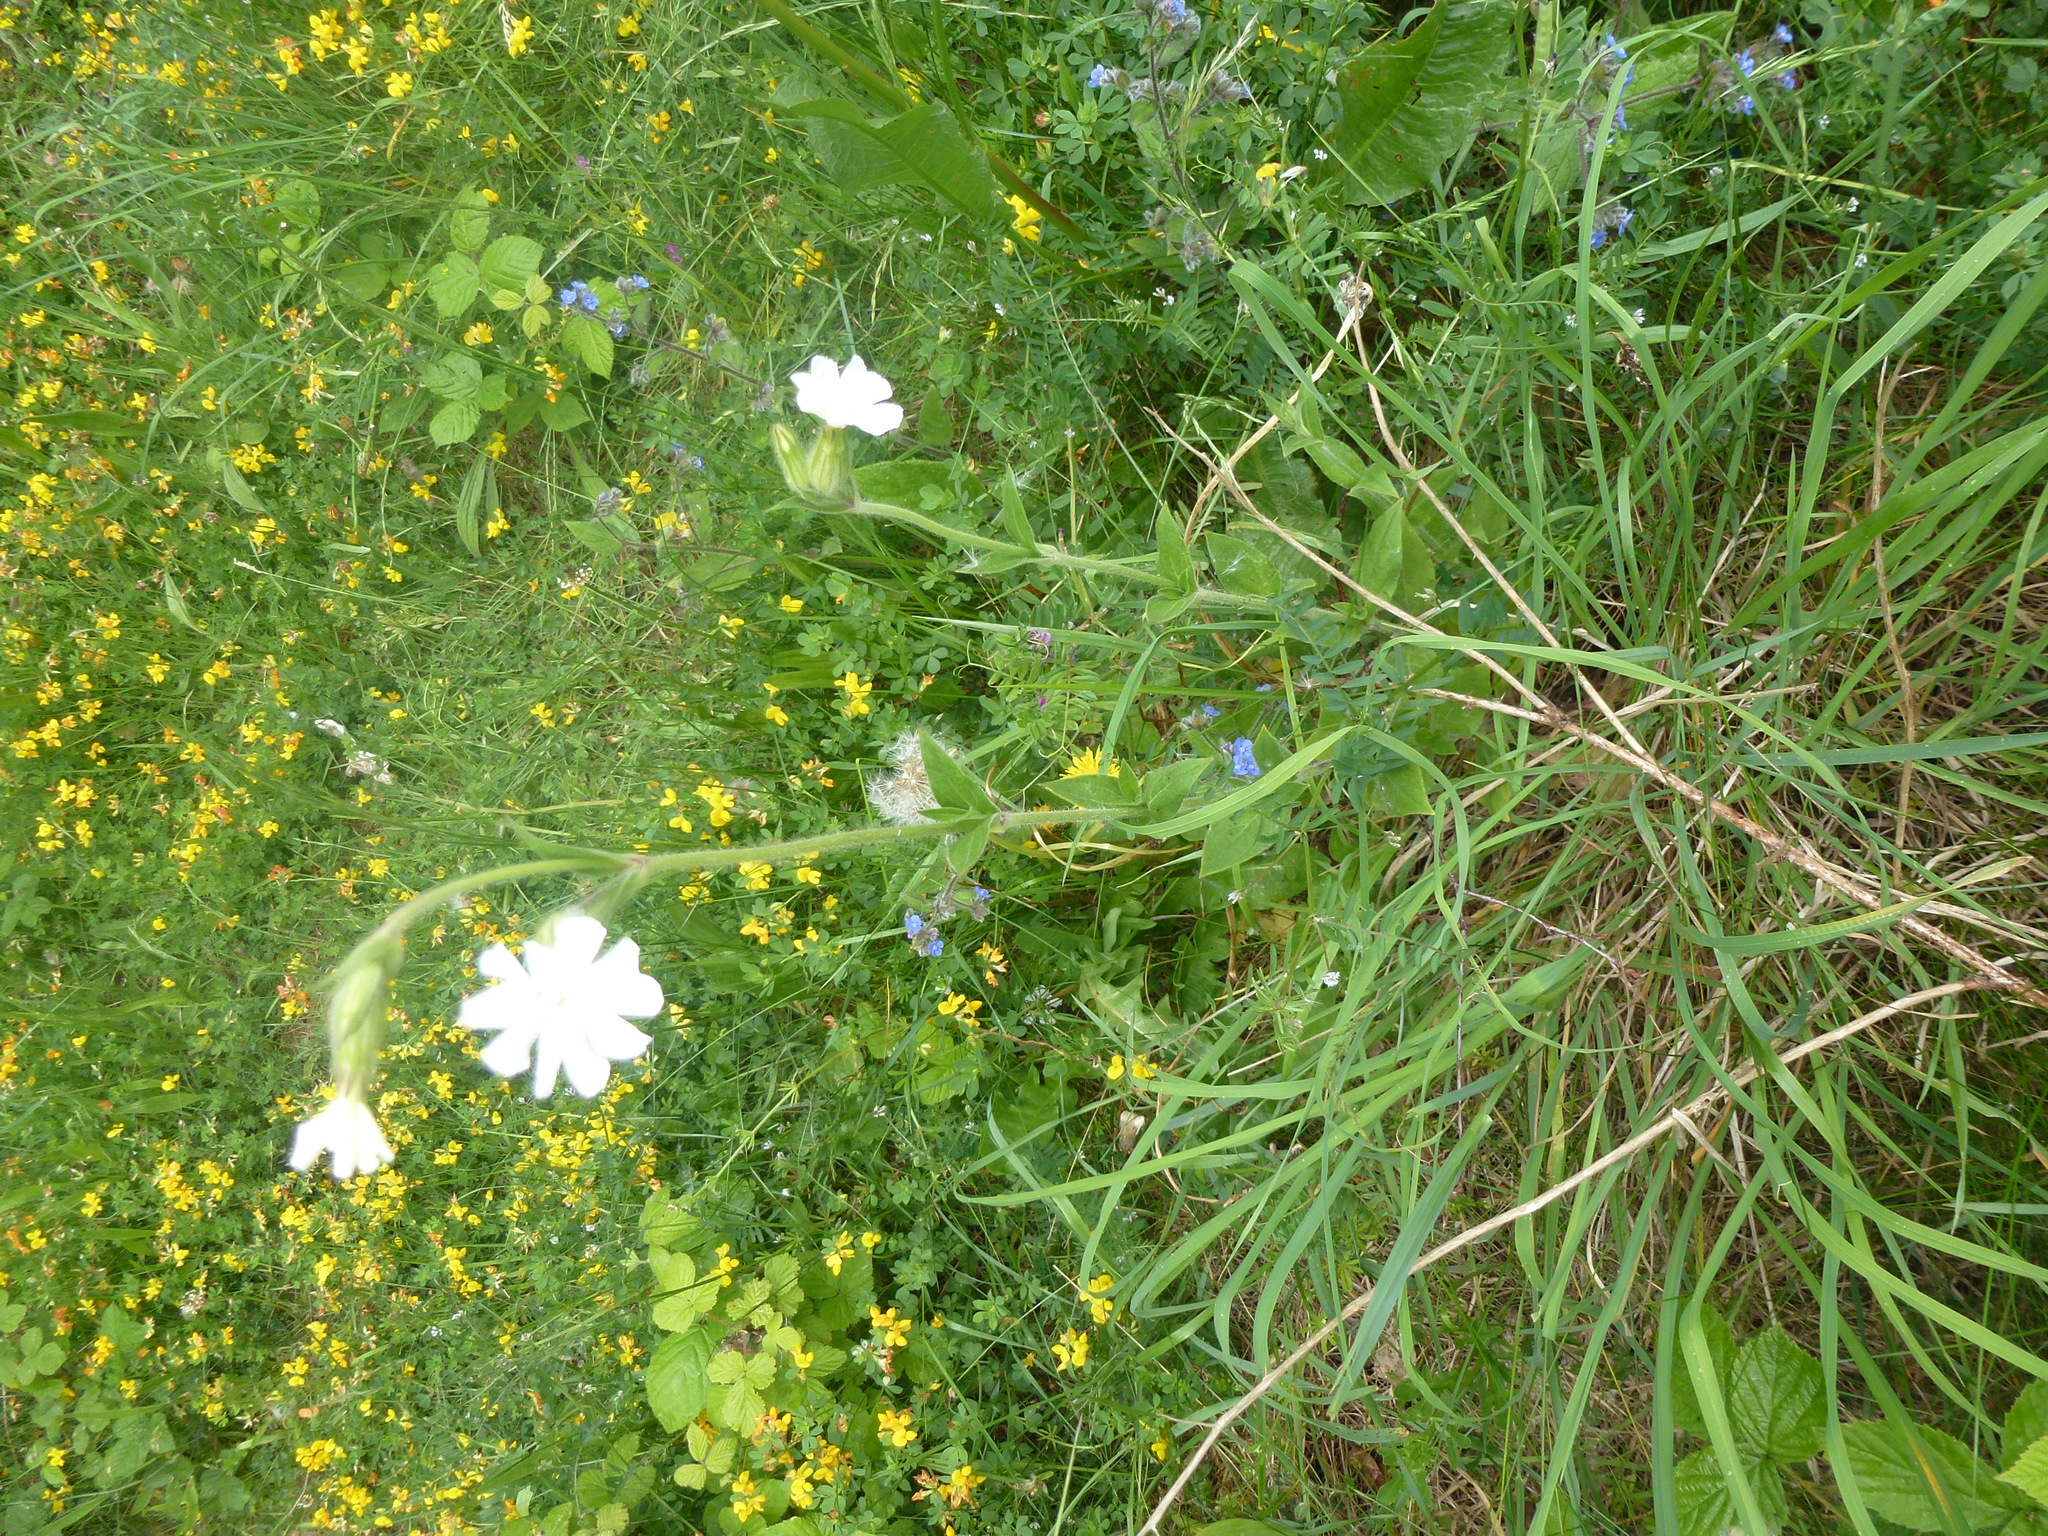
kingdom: Plantae
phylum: Tracheophyta
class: Magnoliopsida
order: Caryophyllales
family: Caryophyllaceae
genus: Silene
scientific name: Silene latifolia
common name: White campion
